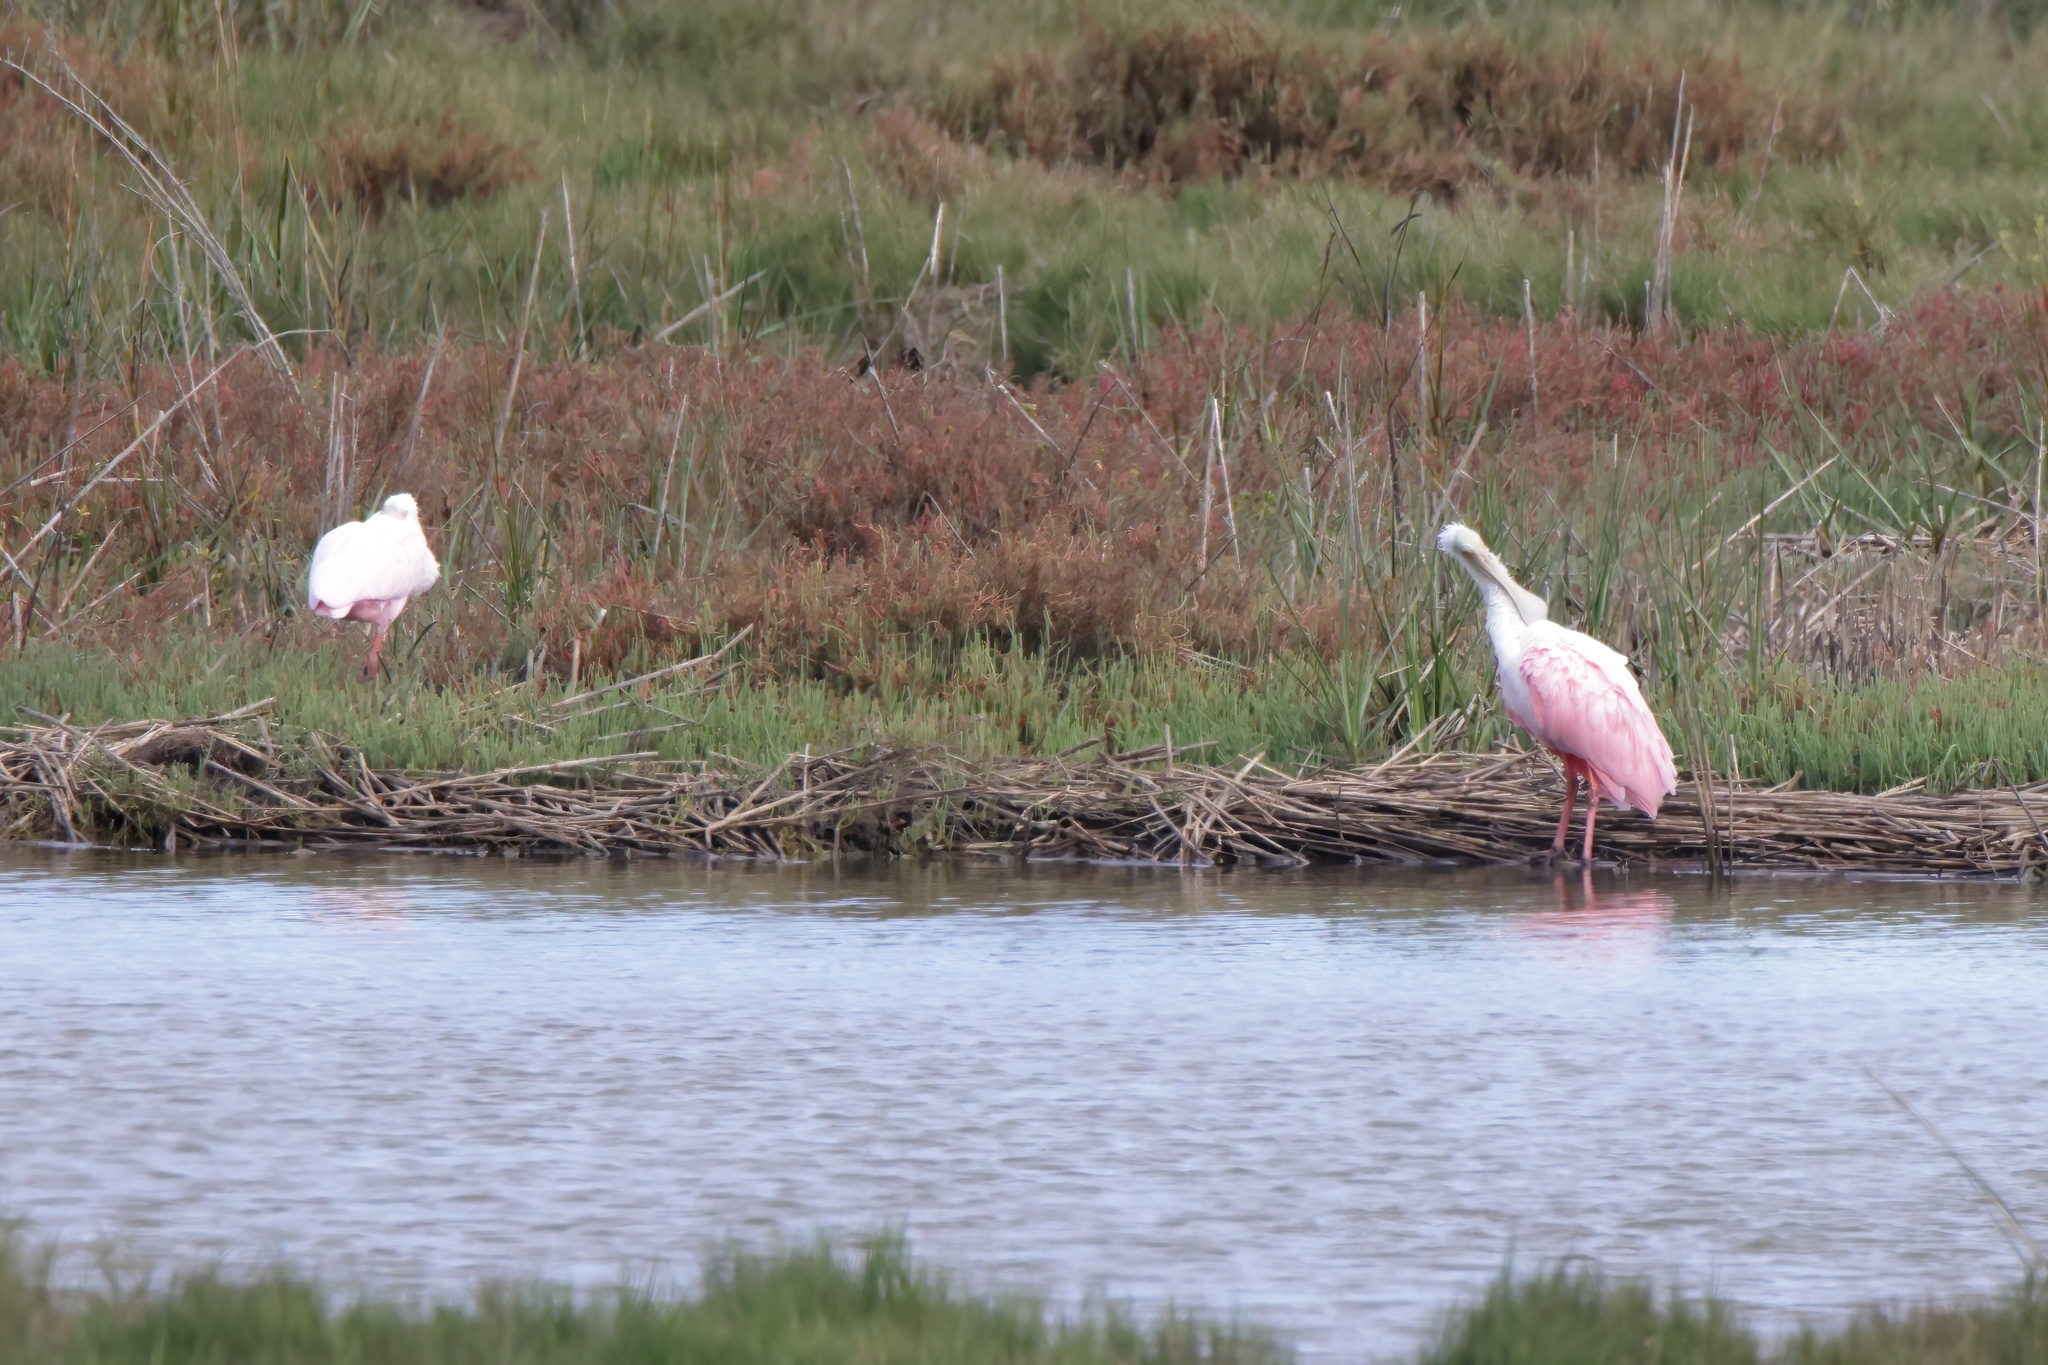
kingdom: Animalia
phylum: Chordata
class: Aves
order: Pelecaniformes
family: Threskiornithidae
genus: Platalea
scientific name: Platalea ajaja
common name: Roseate spoonbill
